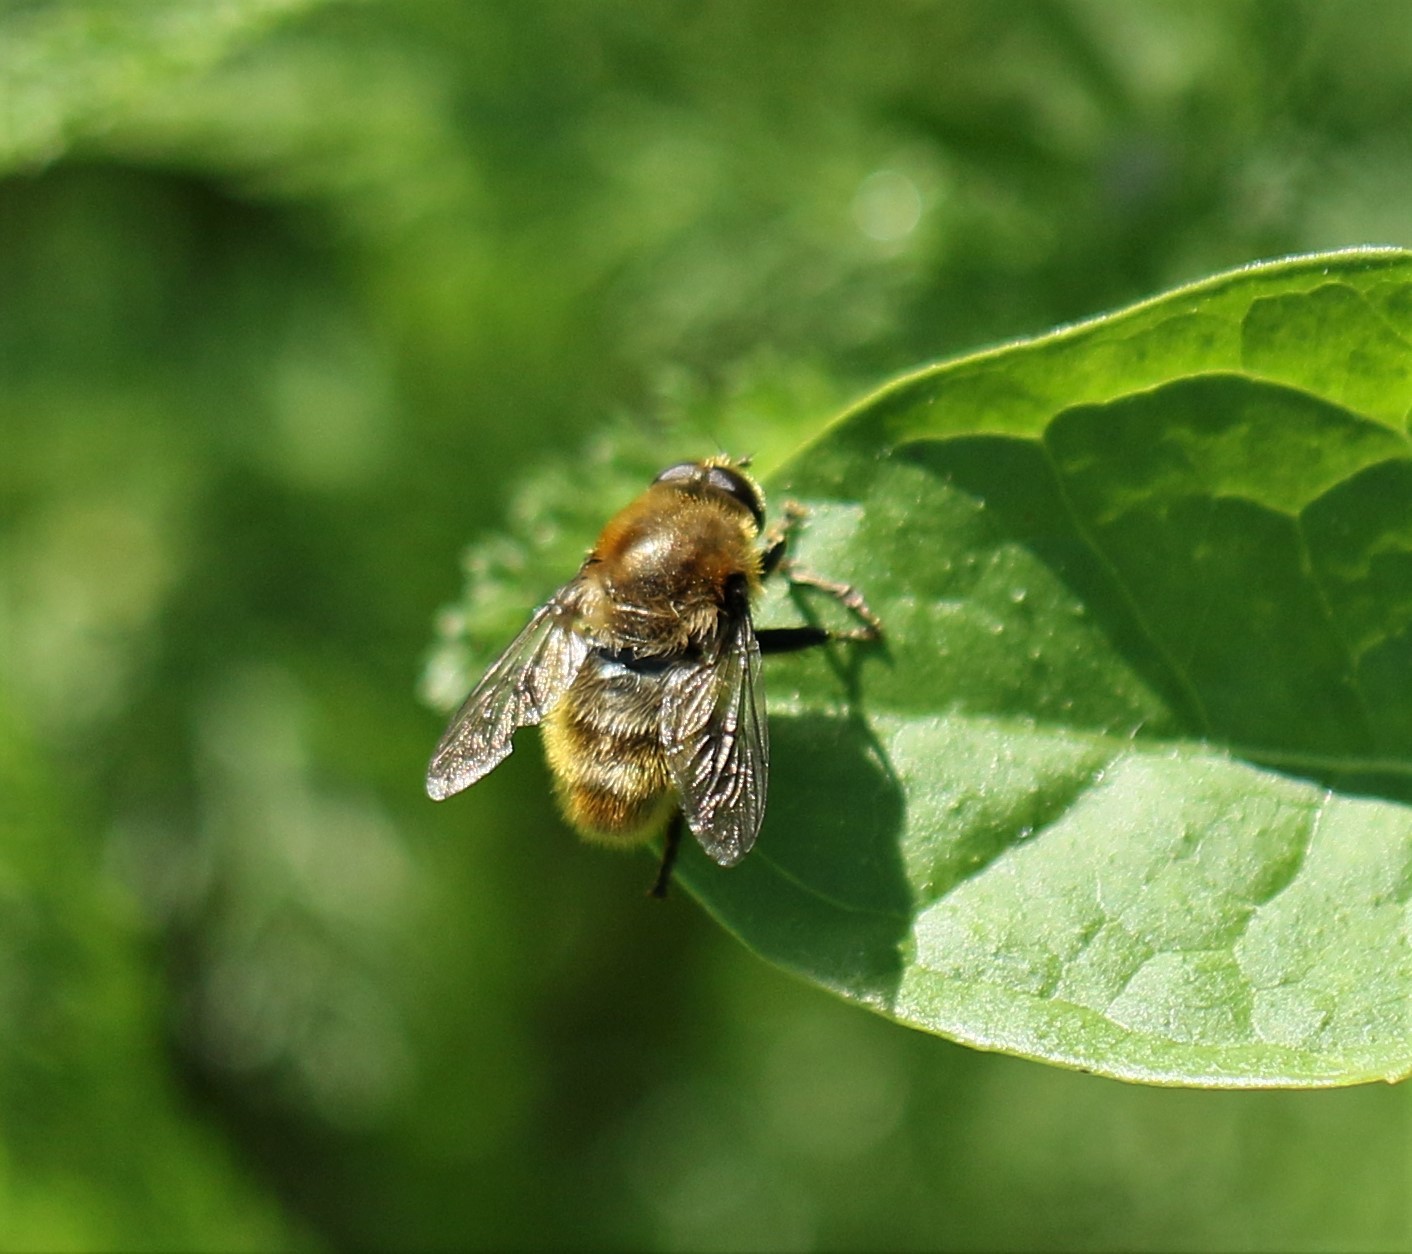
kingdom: Animalia
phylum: Arthropoda
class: Insecta
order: Diptera
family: Syrphidae
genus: Merodon
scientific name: Merodon equestris
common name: Greater bulb-fly
